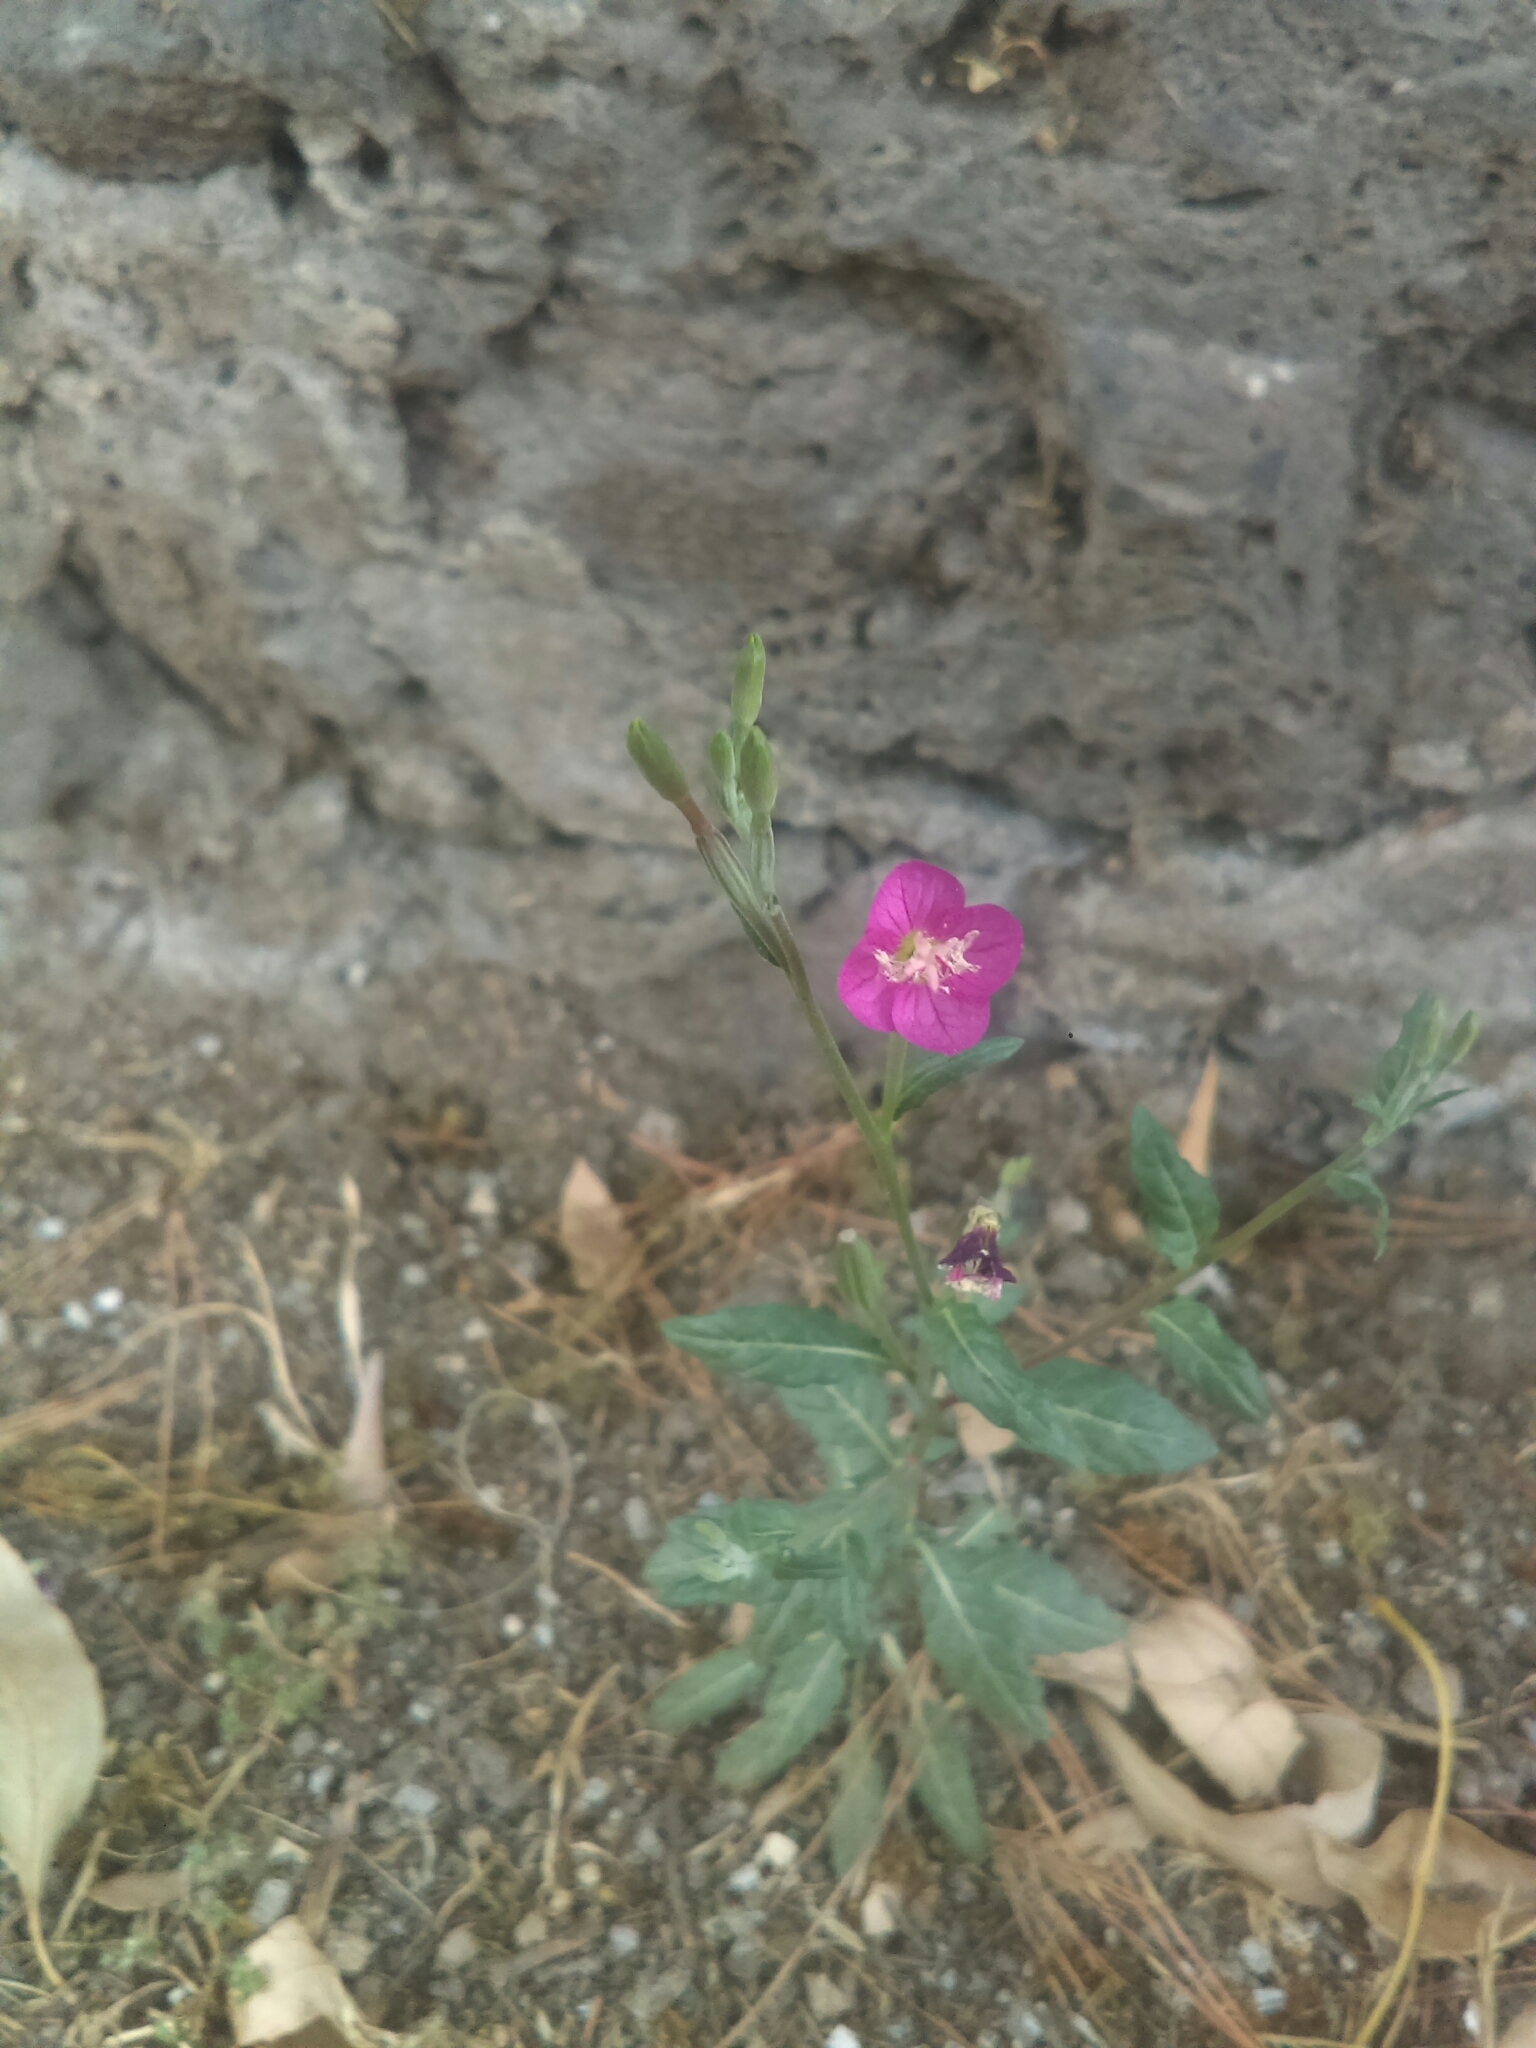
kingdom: Plantae
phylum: Tracheophyta
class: Magnoliopsida
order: Myrtales
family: Onagraceae
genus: Oenothera
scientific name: Oenothera rosea
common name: Rosy evening-primrose
